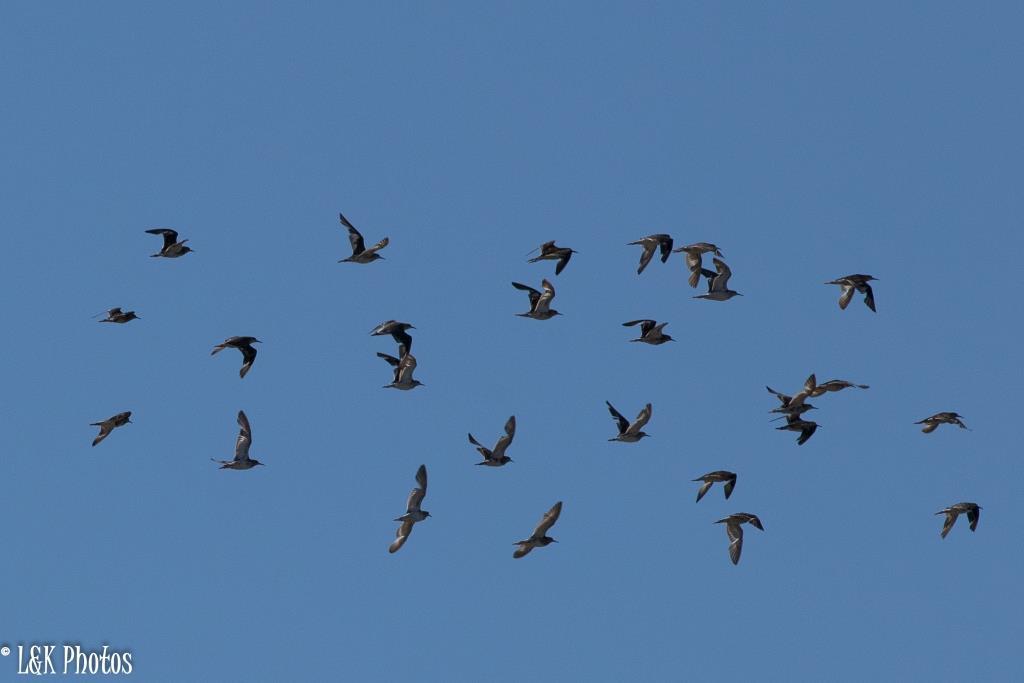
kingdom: Animalia
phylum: Chordata
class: Aves
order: Charadriiformes
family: Scolopacidae
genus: Calidris
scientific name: Calidris pugnax
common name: Ruff
